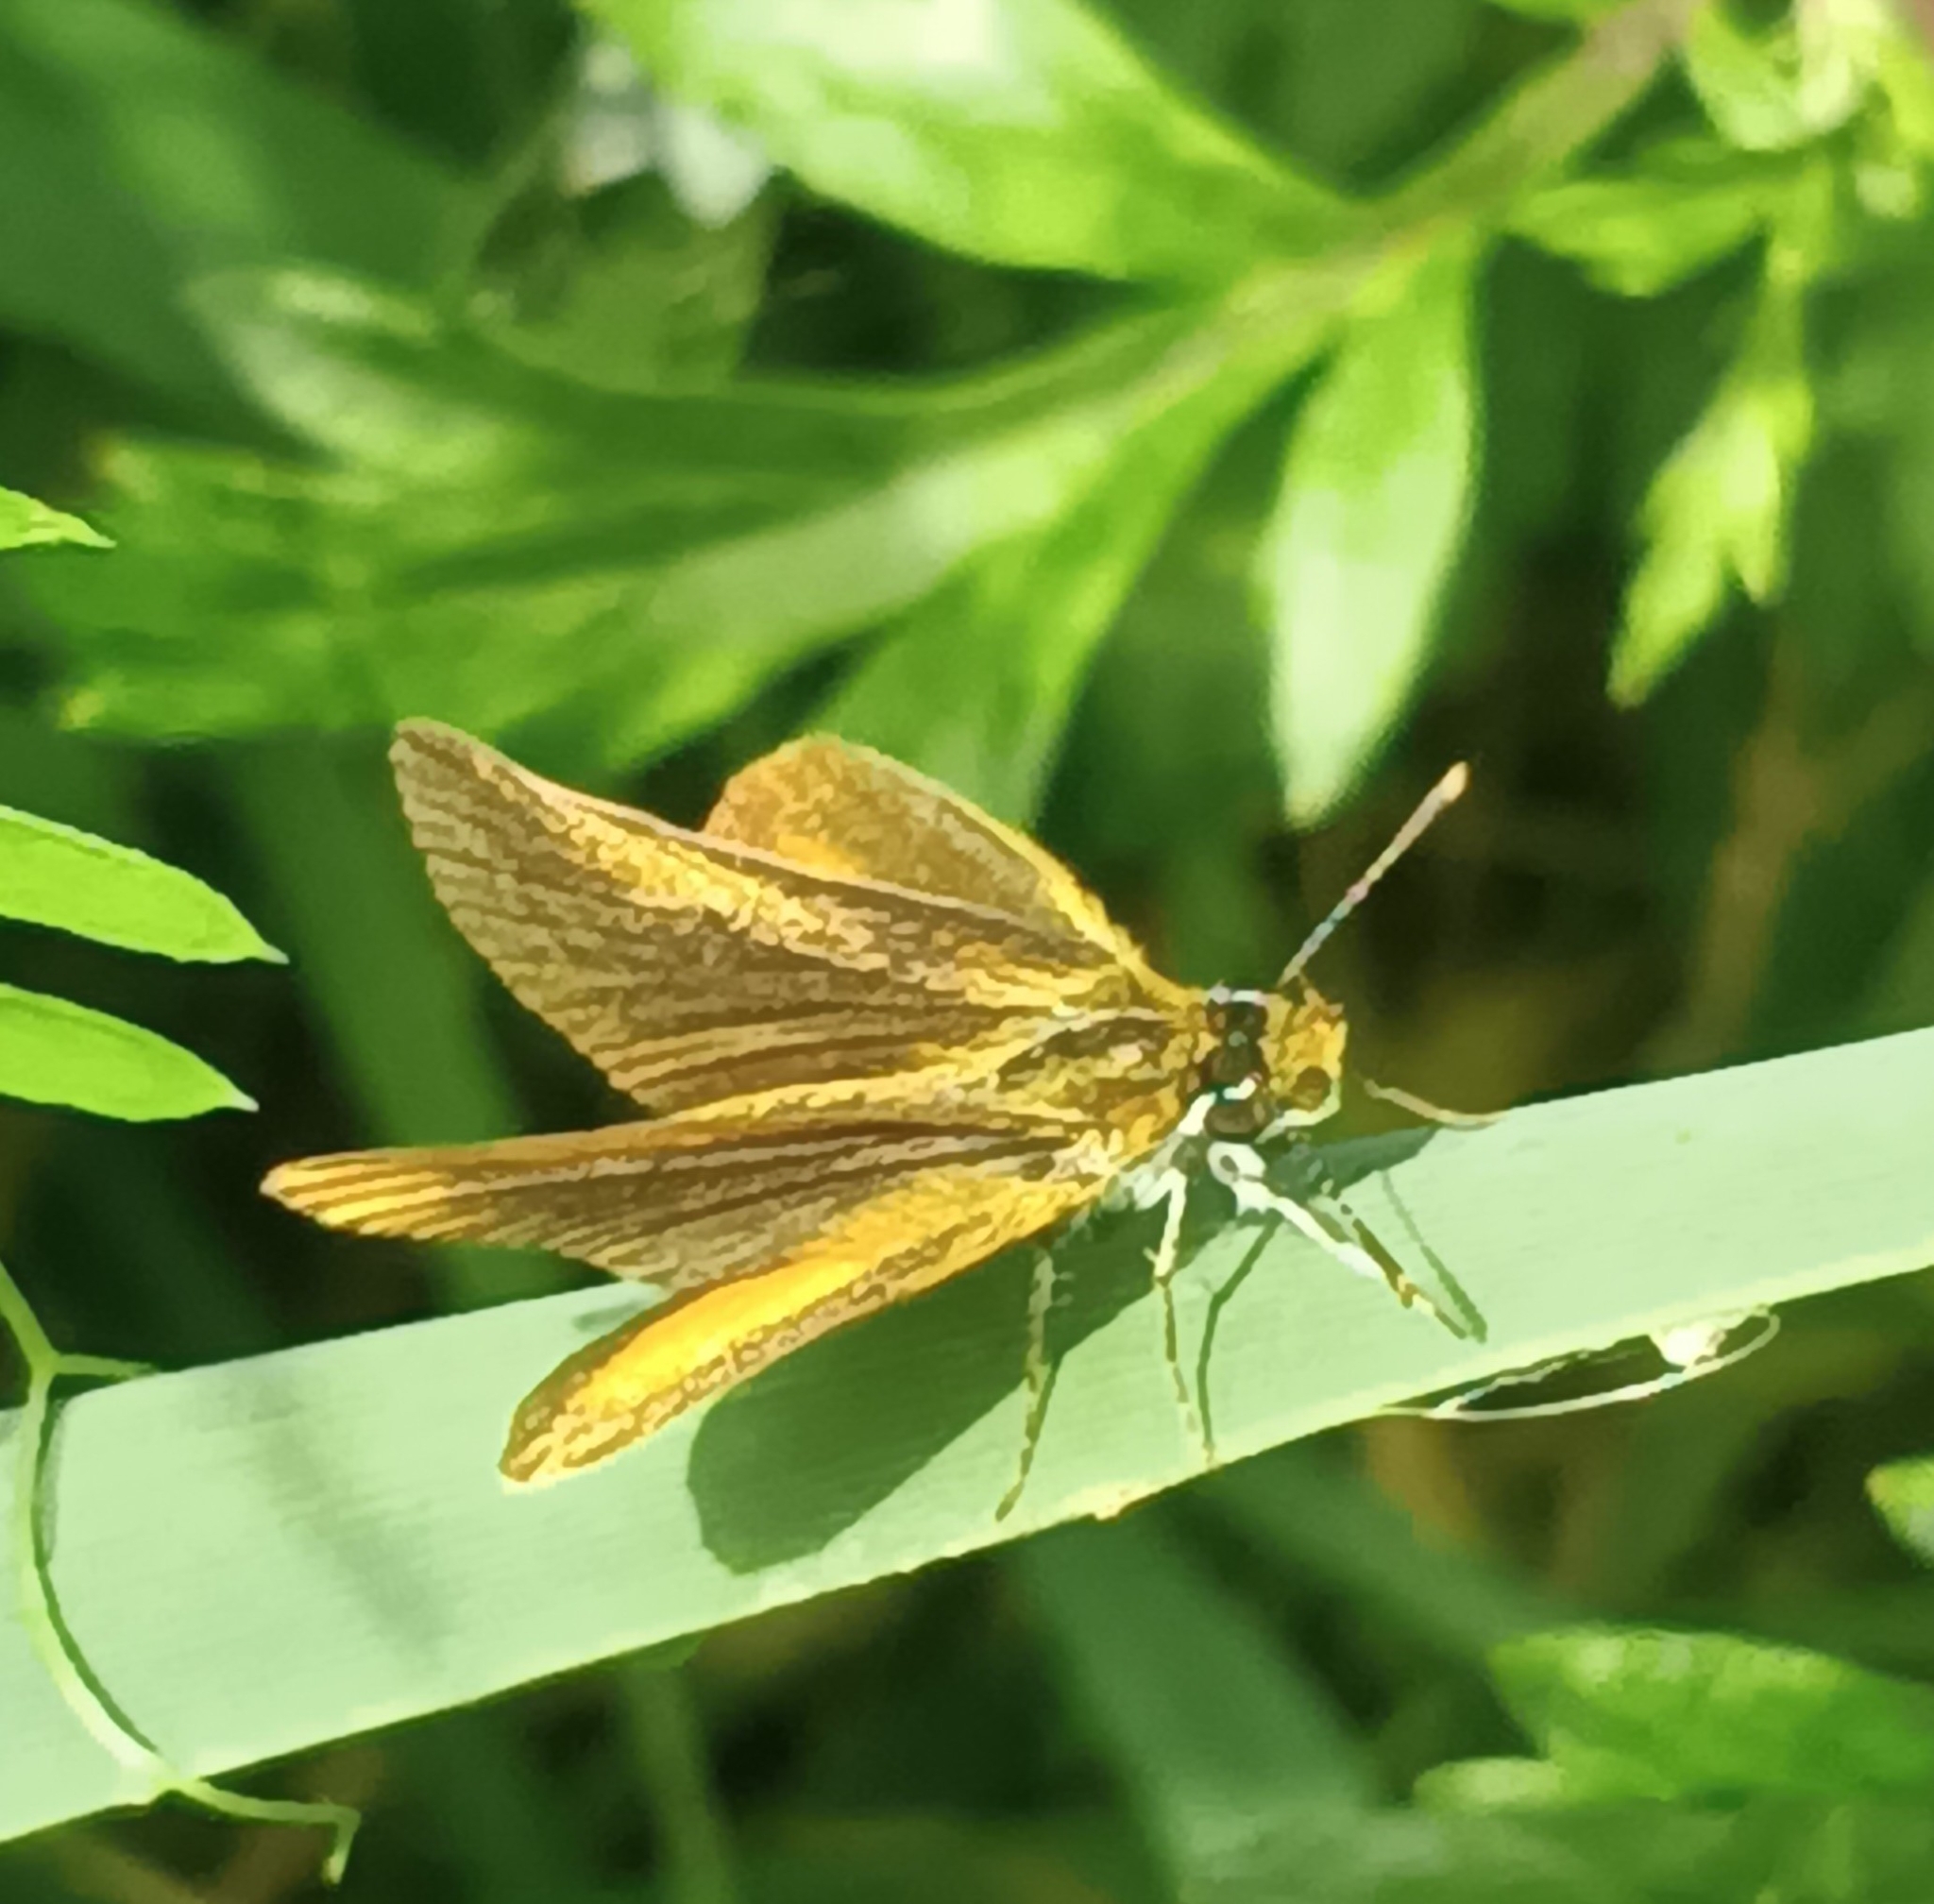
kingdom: Animalia
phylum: Arthropoda
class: Insecta
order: Lepidoptera
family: Hesperiidae
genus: Ancyloxypha
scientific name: Ancyloxypha numitor
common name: Least skipper
